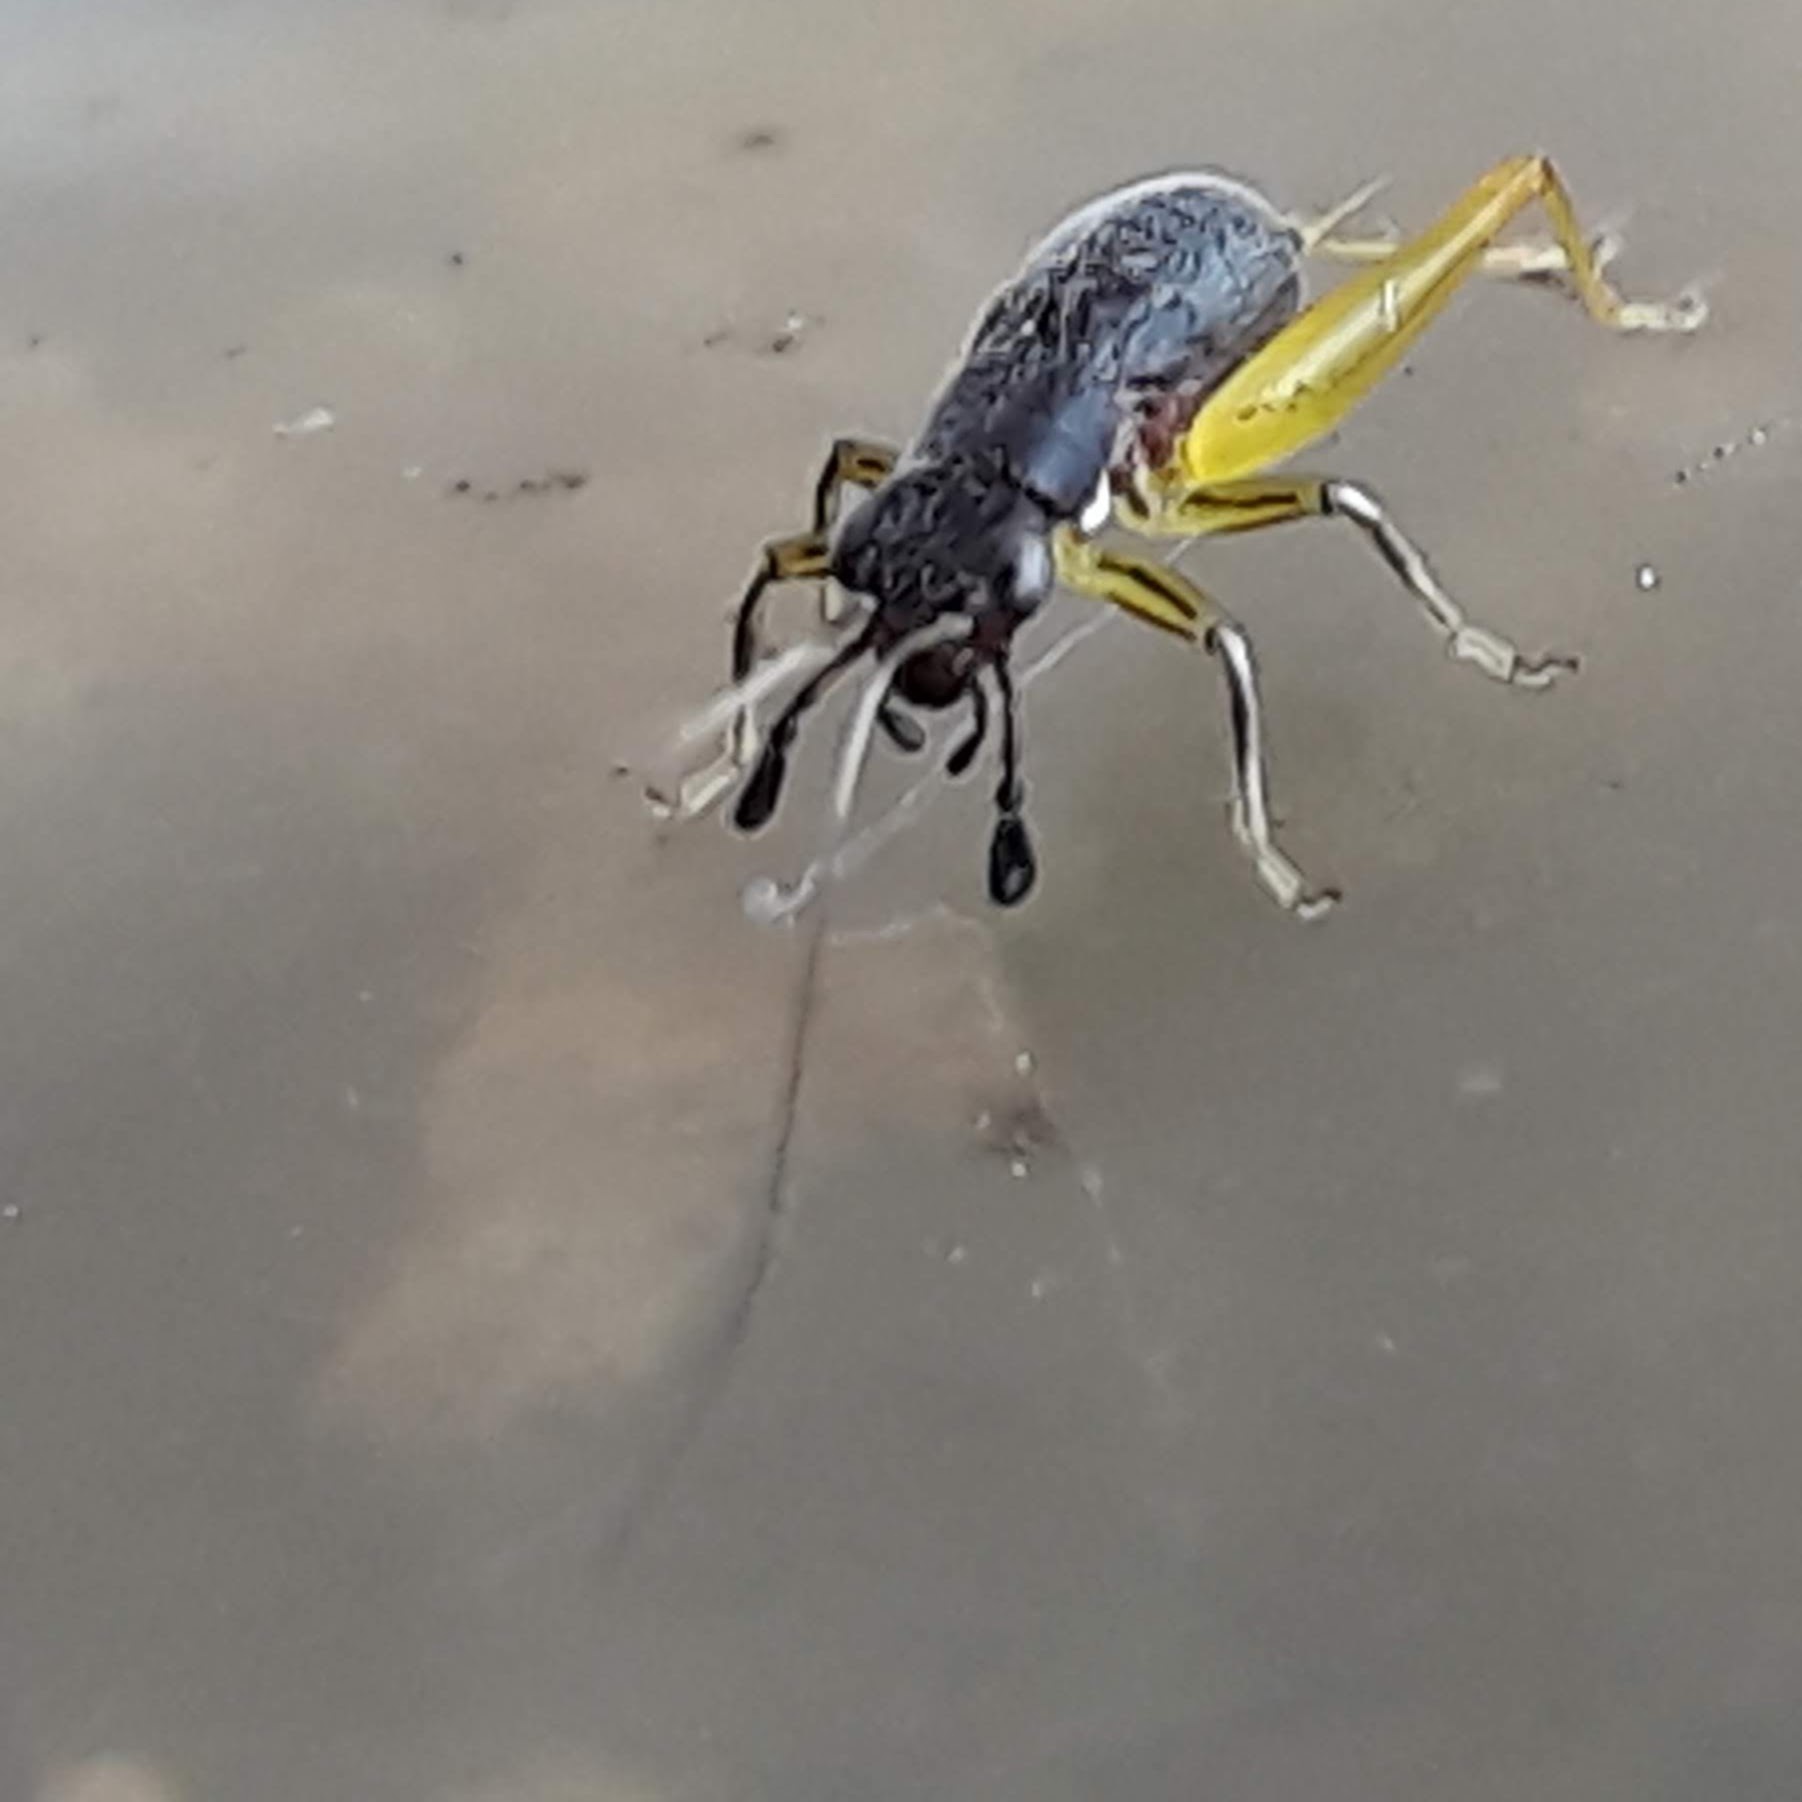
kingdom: Animalia
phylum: Arthropoda
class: Insecta
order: Orthoptera
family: Trigonidiidae
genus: Phyllopalpus
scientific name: Phyllopalpus pulchellus
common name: Handsome trig
